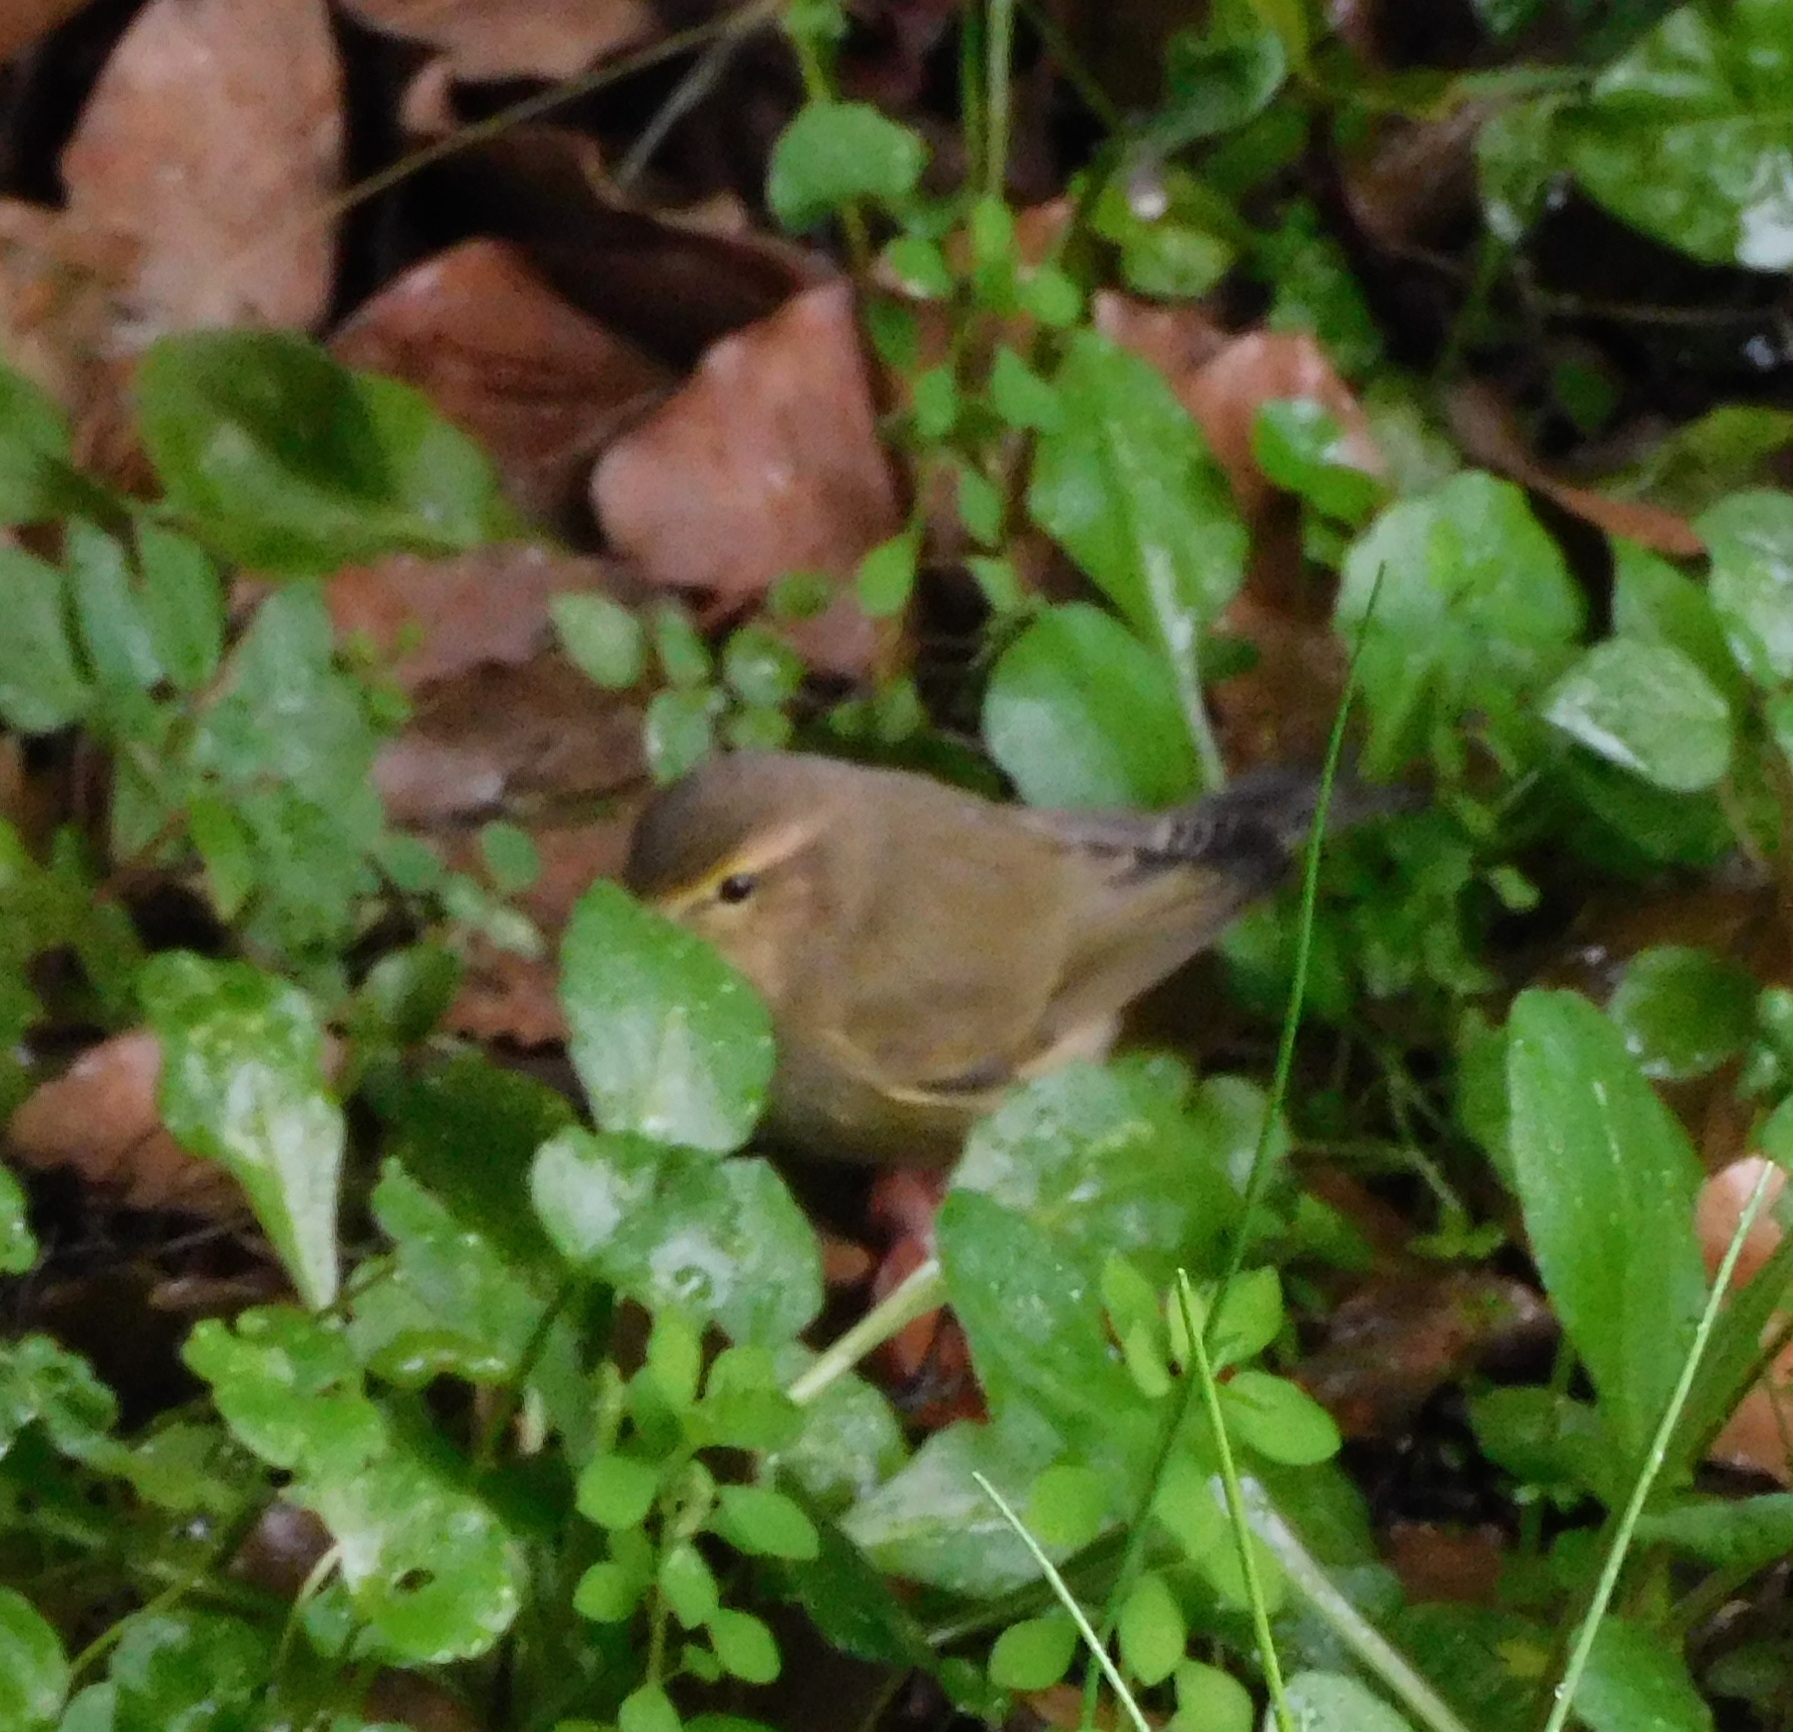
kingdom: Animalia
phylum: Chordata
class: Aves
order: Passeriformes
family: Phylloscopidae
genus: Phylloscopus
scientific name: Phylloscopus collybita
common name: Common chiffchaff
